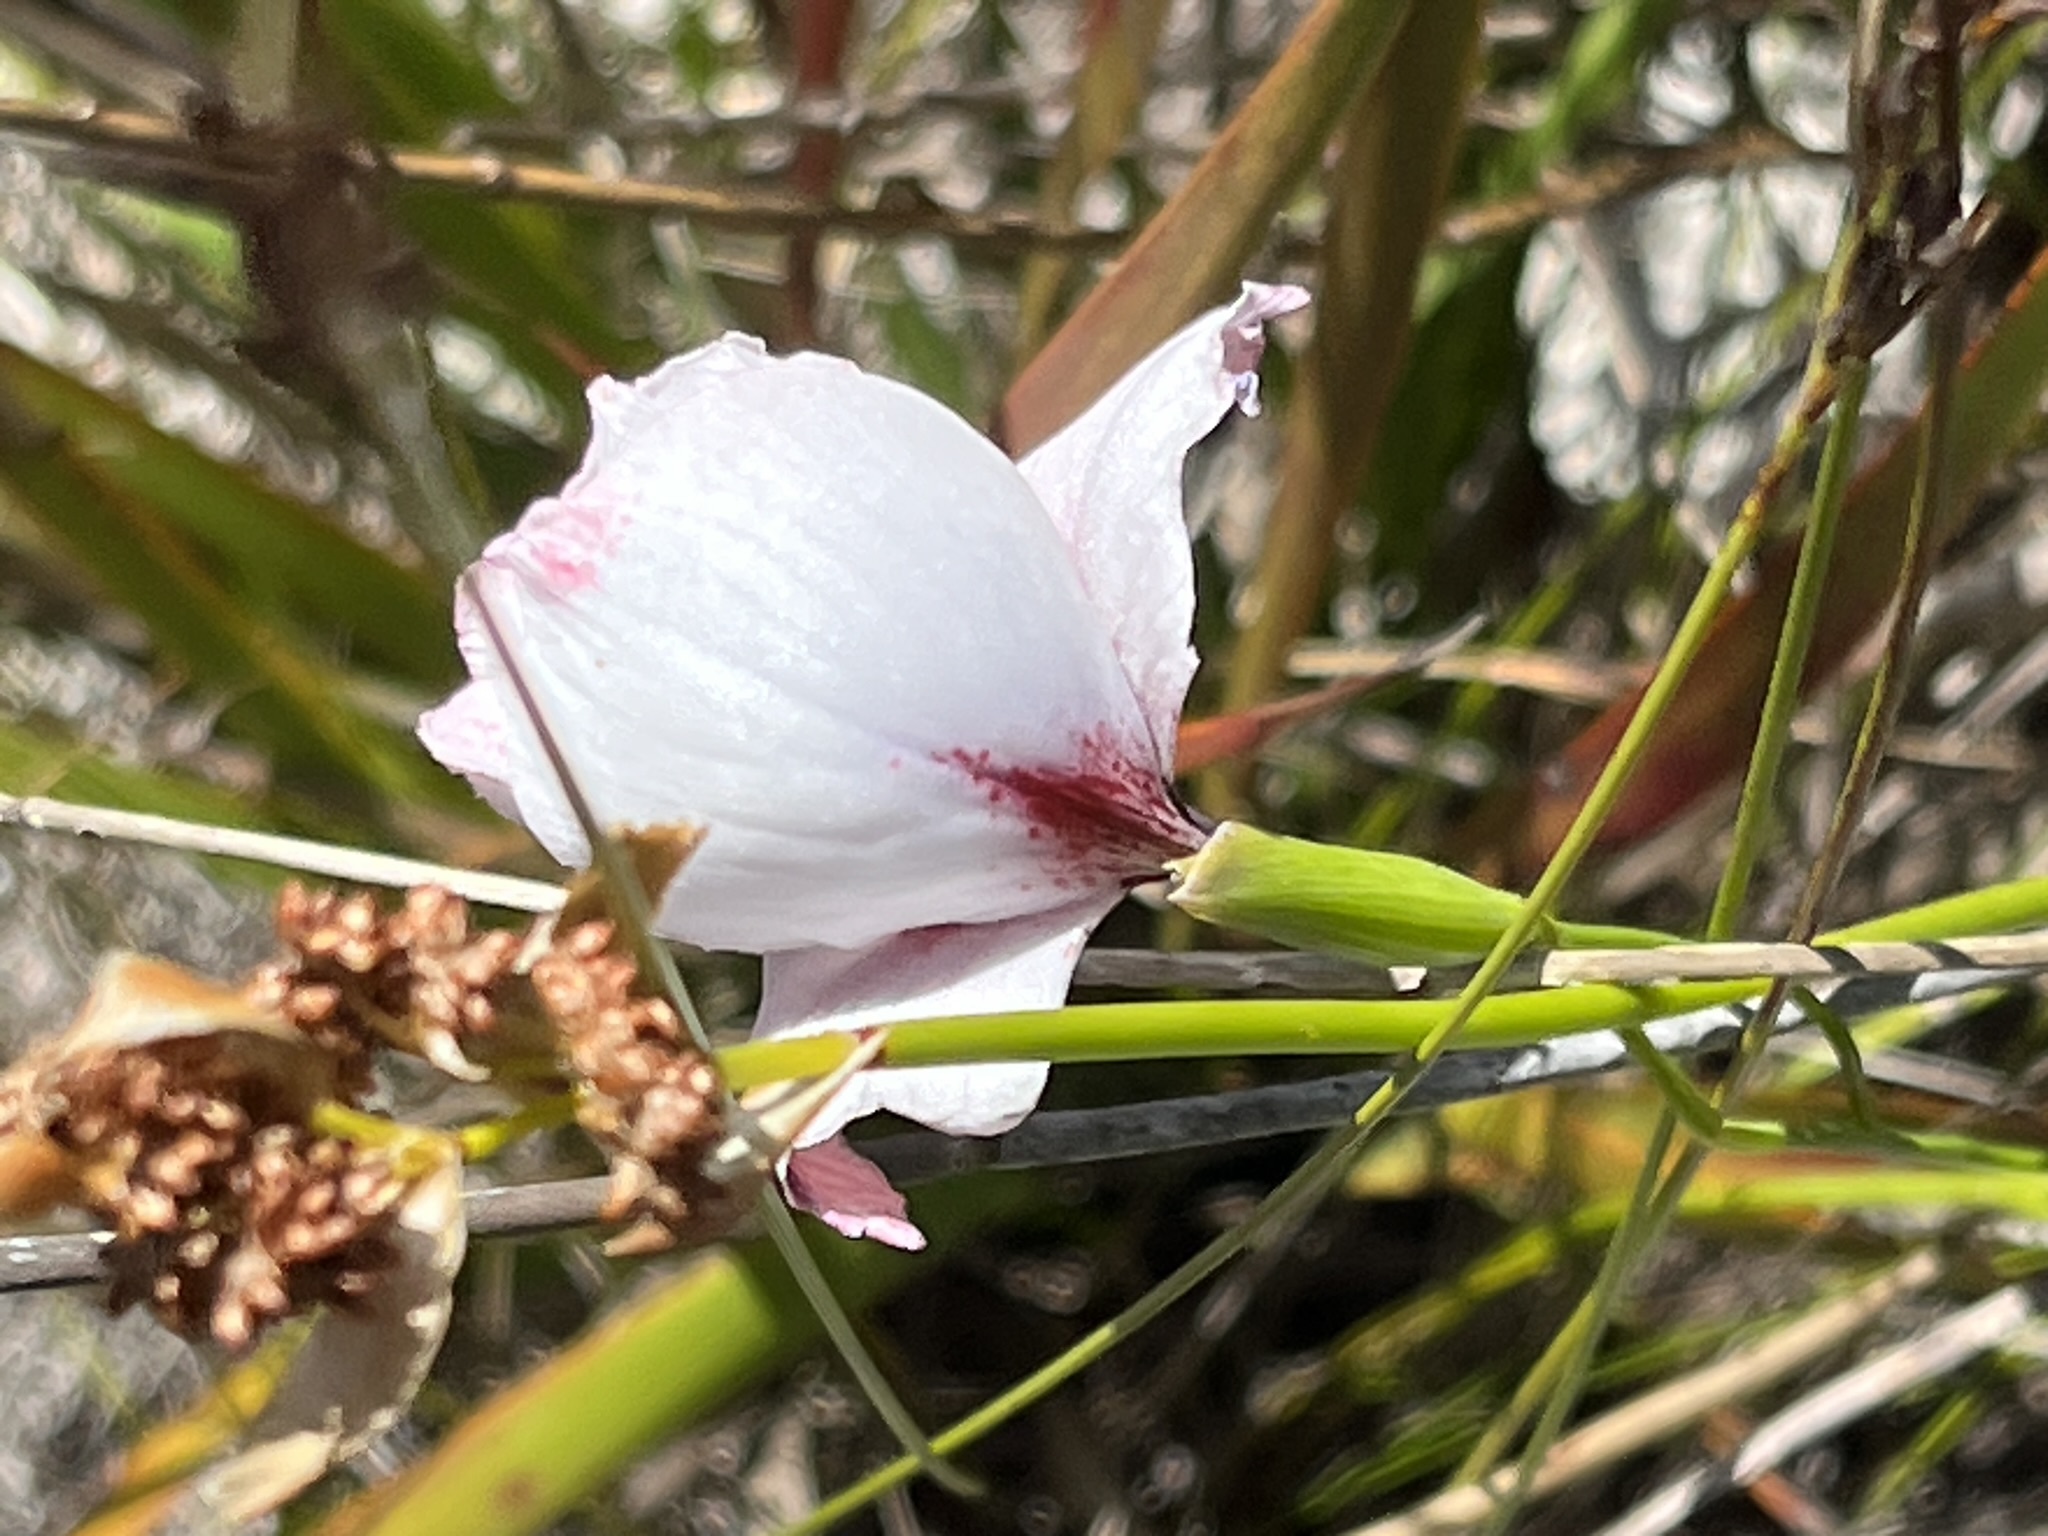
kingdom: Plantae
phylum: Tracheophyta
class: Liliopsida
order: Asparagales
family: Iridaceae
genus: Gladiolus
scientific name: Gladiolus variegatus
